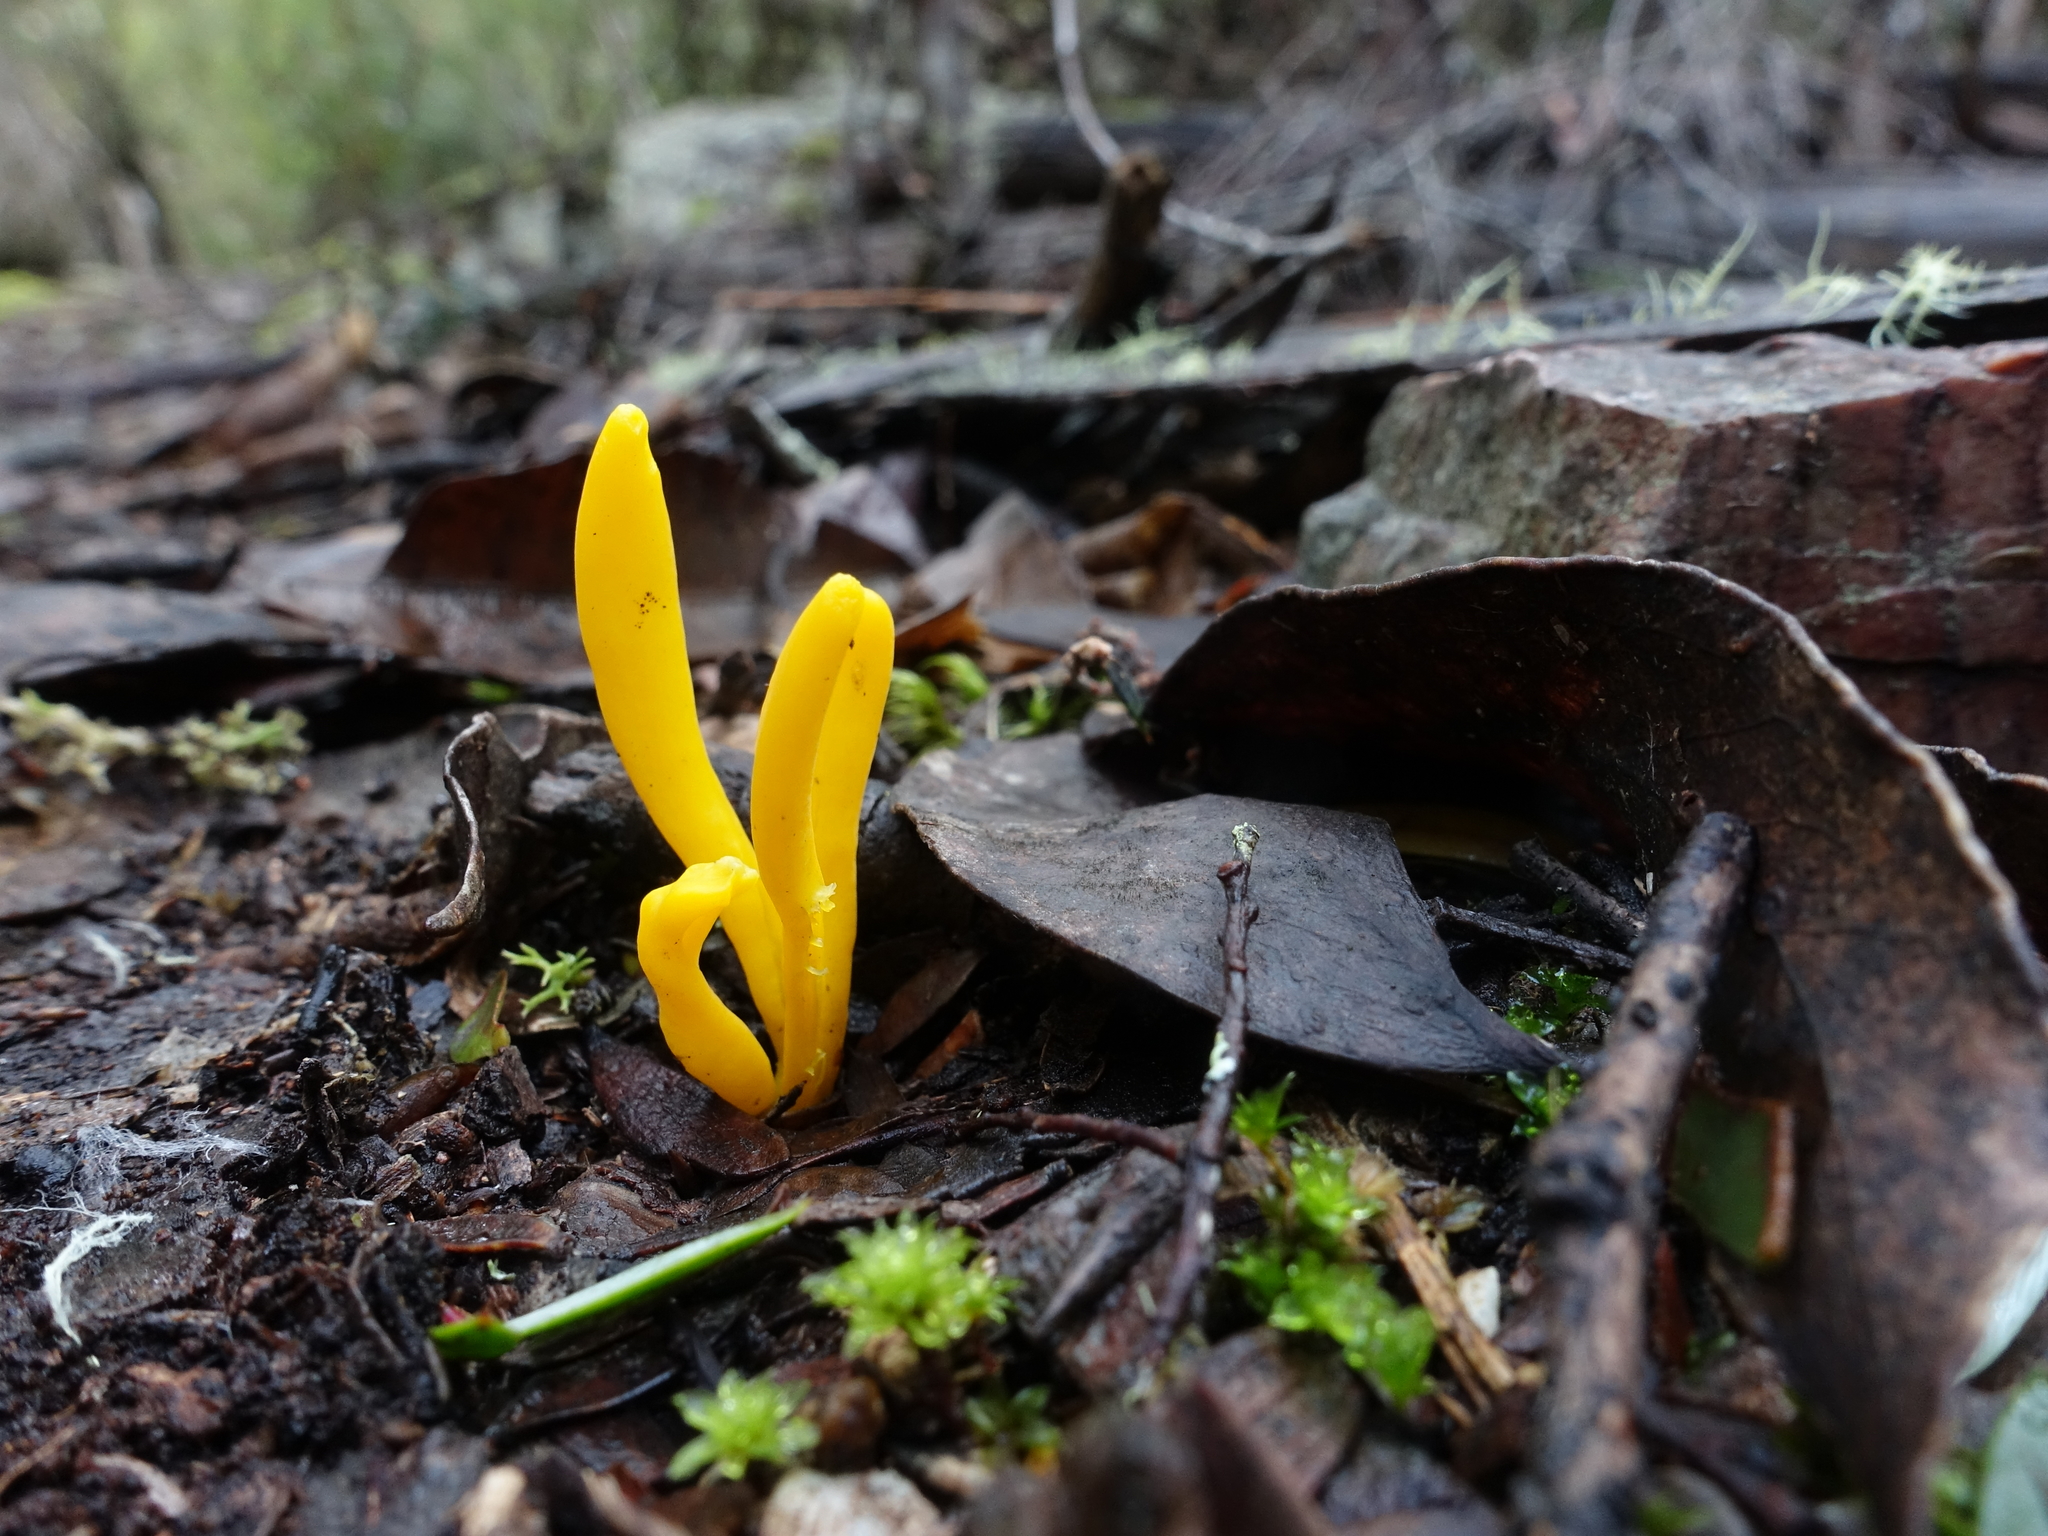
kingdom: Fungi
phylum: Basidiomycota
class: Agaricomycetes
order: Agaricales
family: Clavariaceae
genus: Clavulinopsis
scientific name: Clavulinopsis amoena
